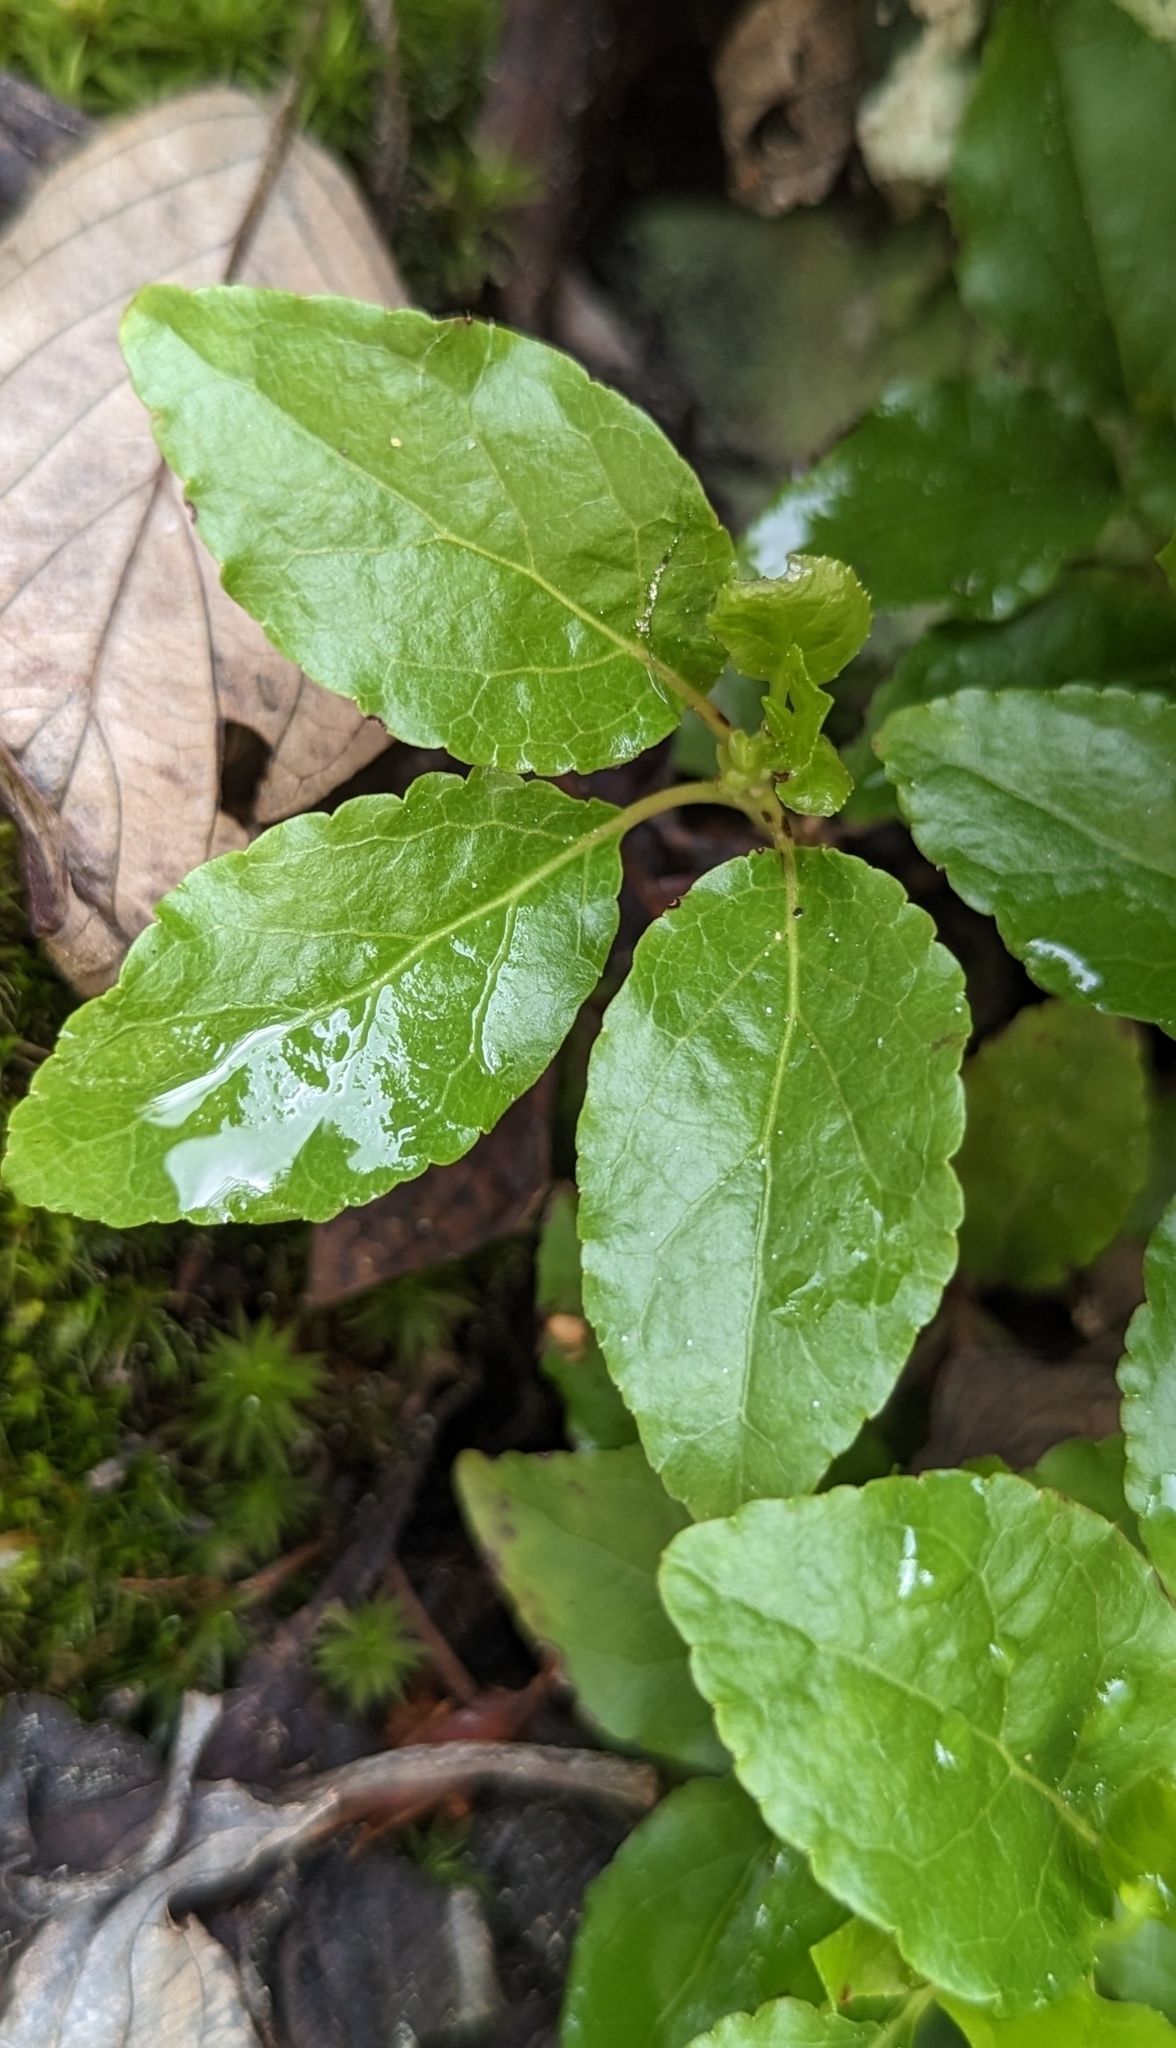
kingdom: Plantae
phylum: Tracheophyta
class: Magnoliopsida
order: Ericales
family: Ericaceae
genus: Orthilia
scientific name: Orthilia secunda
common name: One-sided orthilia
